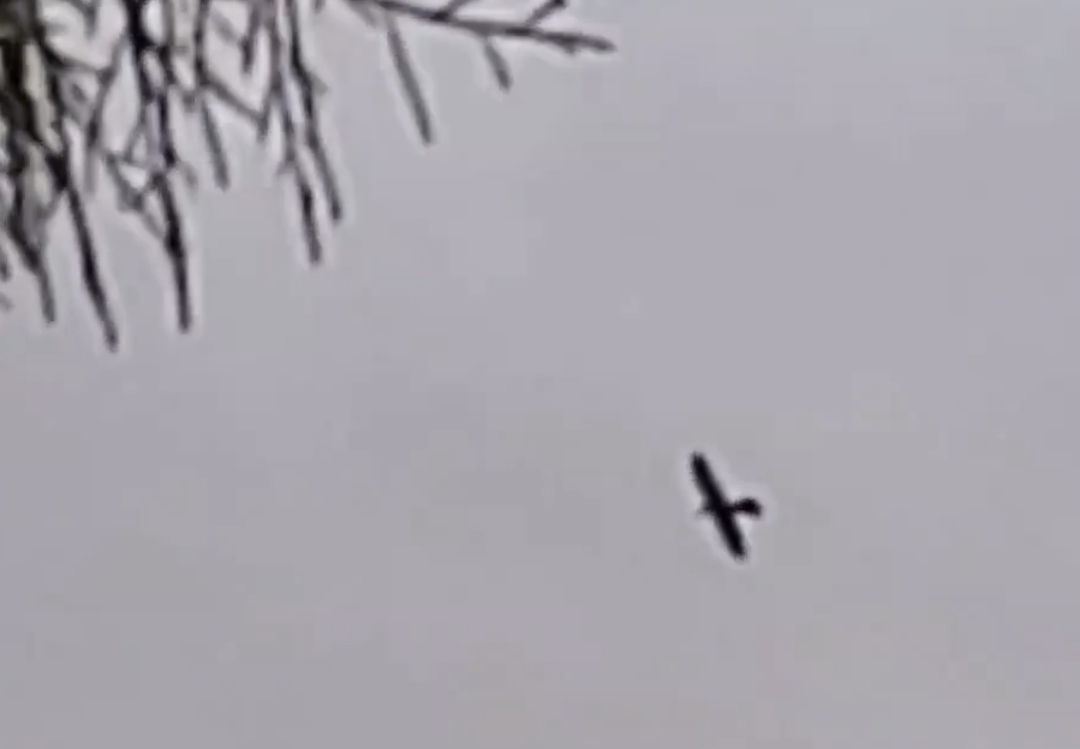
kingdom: Animalia
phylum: Chordata
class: Aves
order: Falconiformes
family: Falconidae
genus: Falco
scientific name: Falco novaeseelandiae
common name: New zealand falcon
